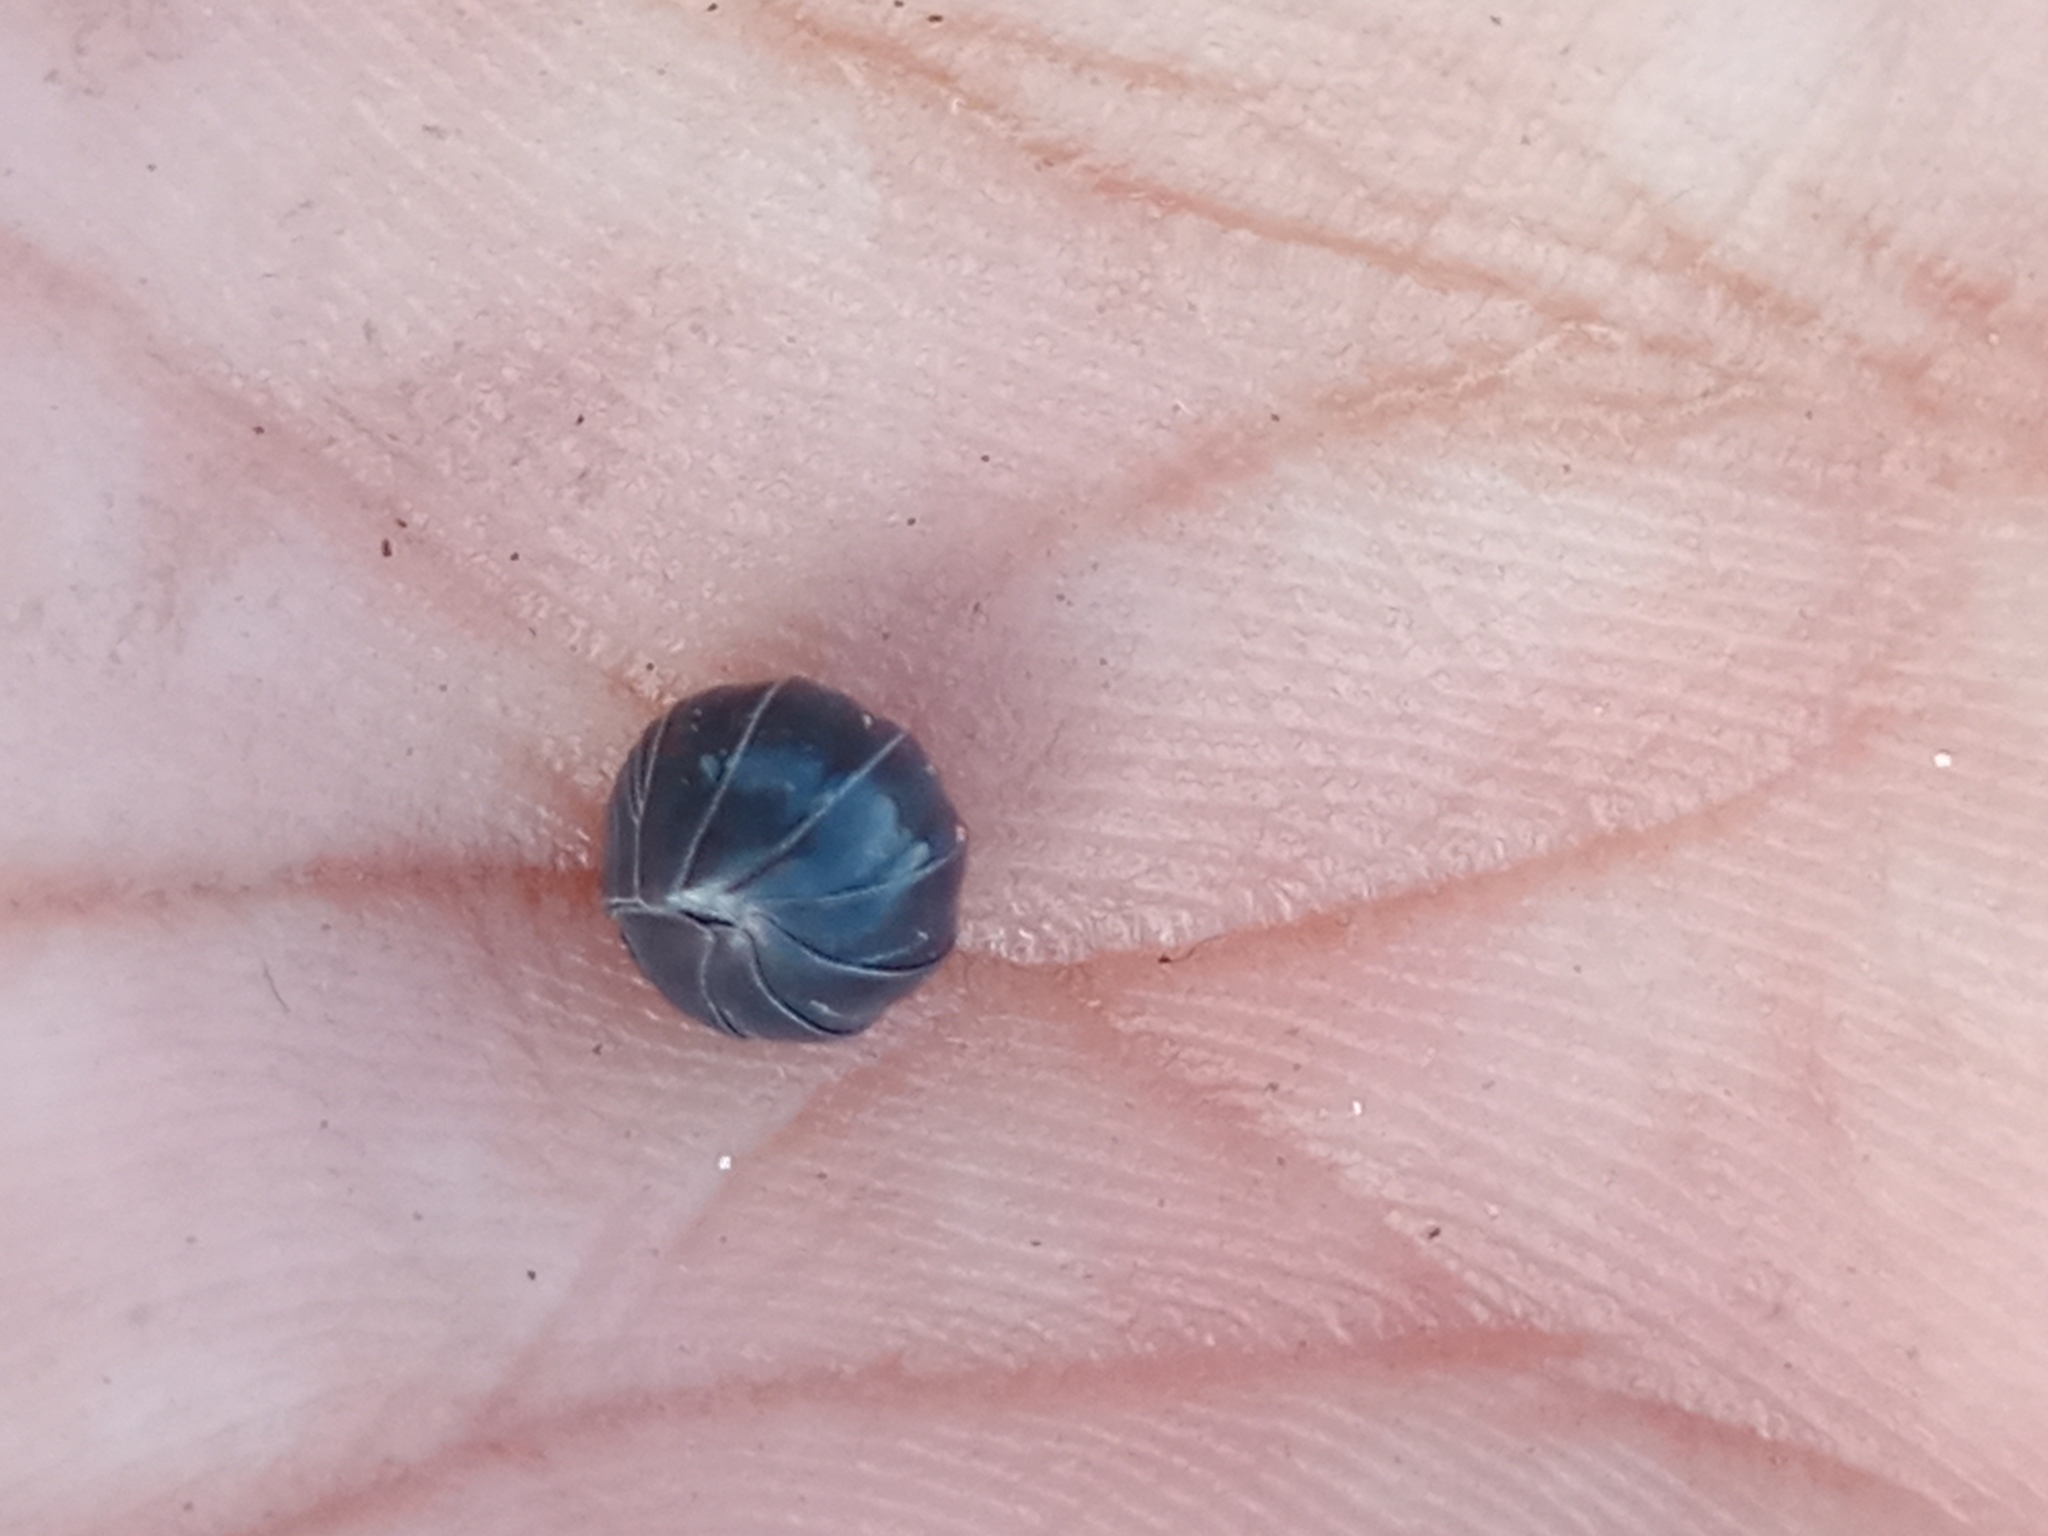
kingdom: Animalia
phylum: Arthropoda
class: Malacostraca
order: Isopoda
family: Armadillidiidae
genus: Armadillidium
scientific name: Armadillidium vulgare
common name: Common pill woodlouse
